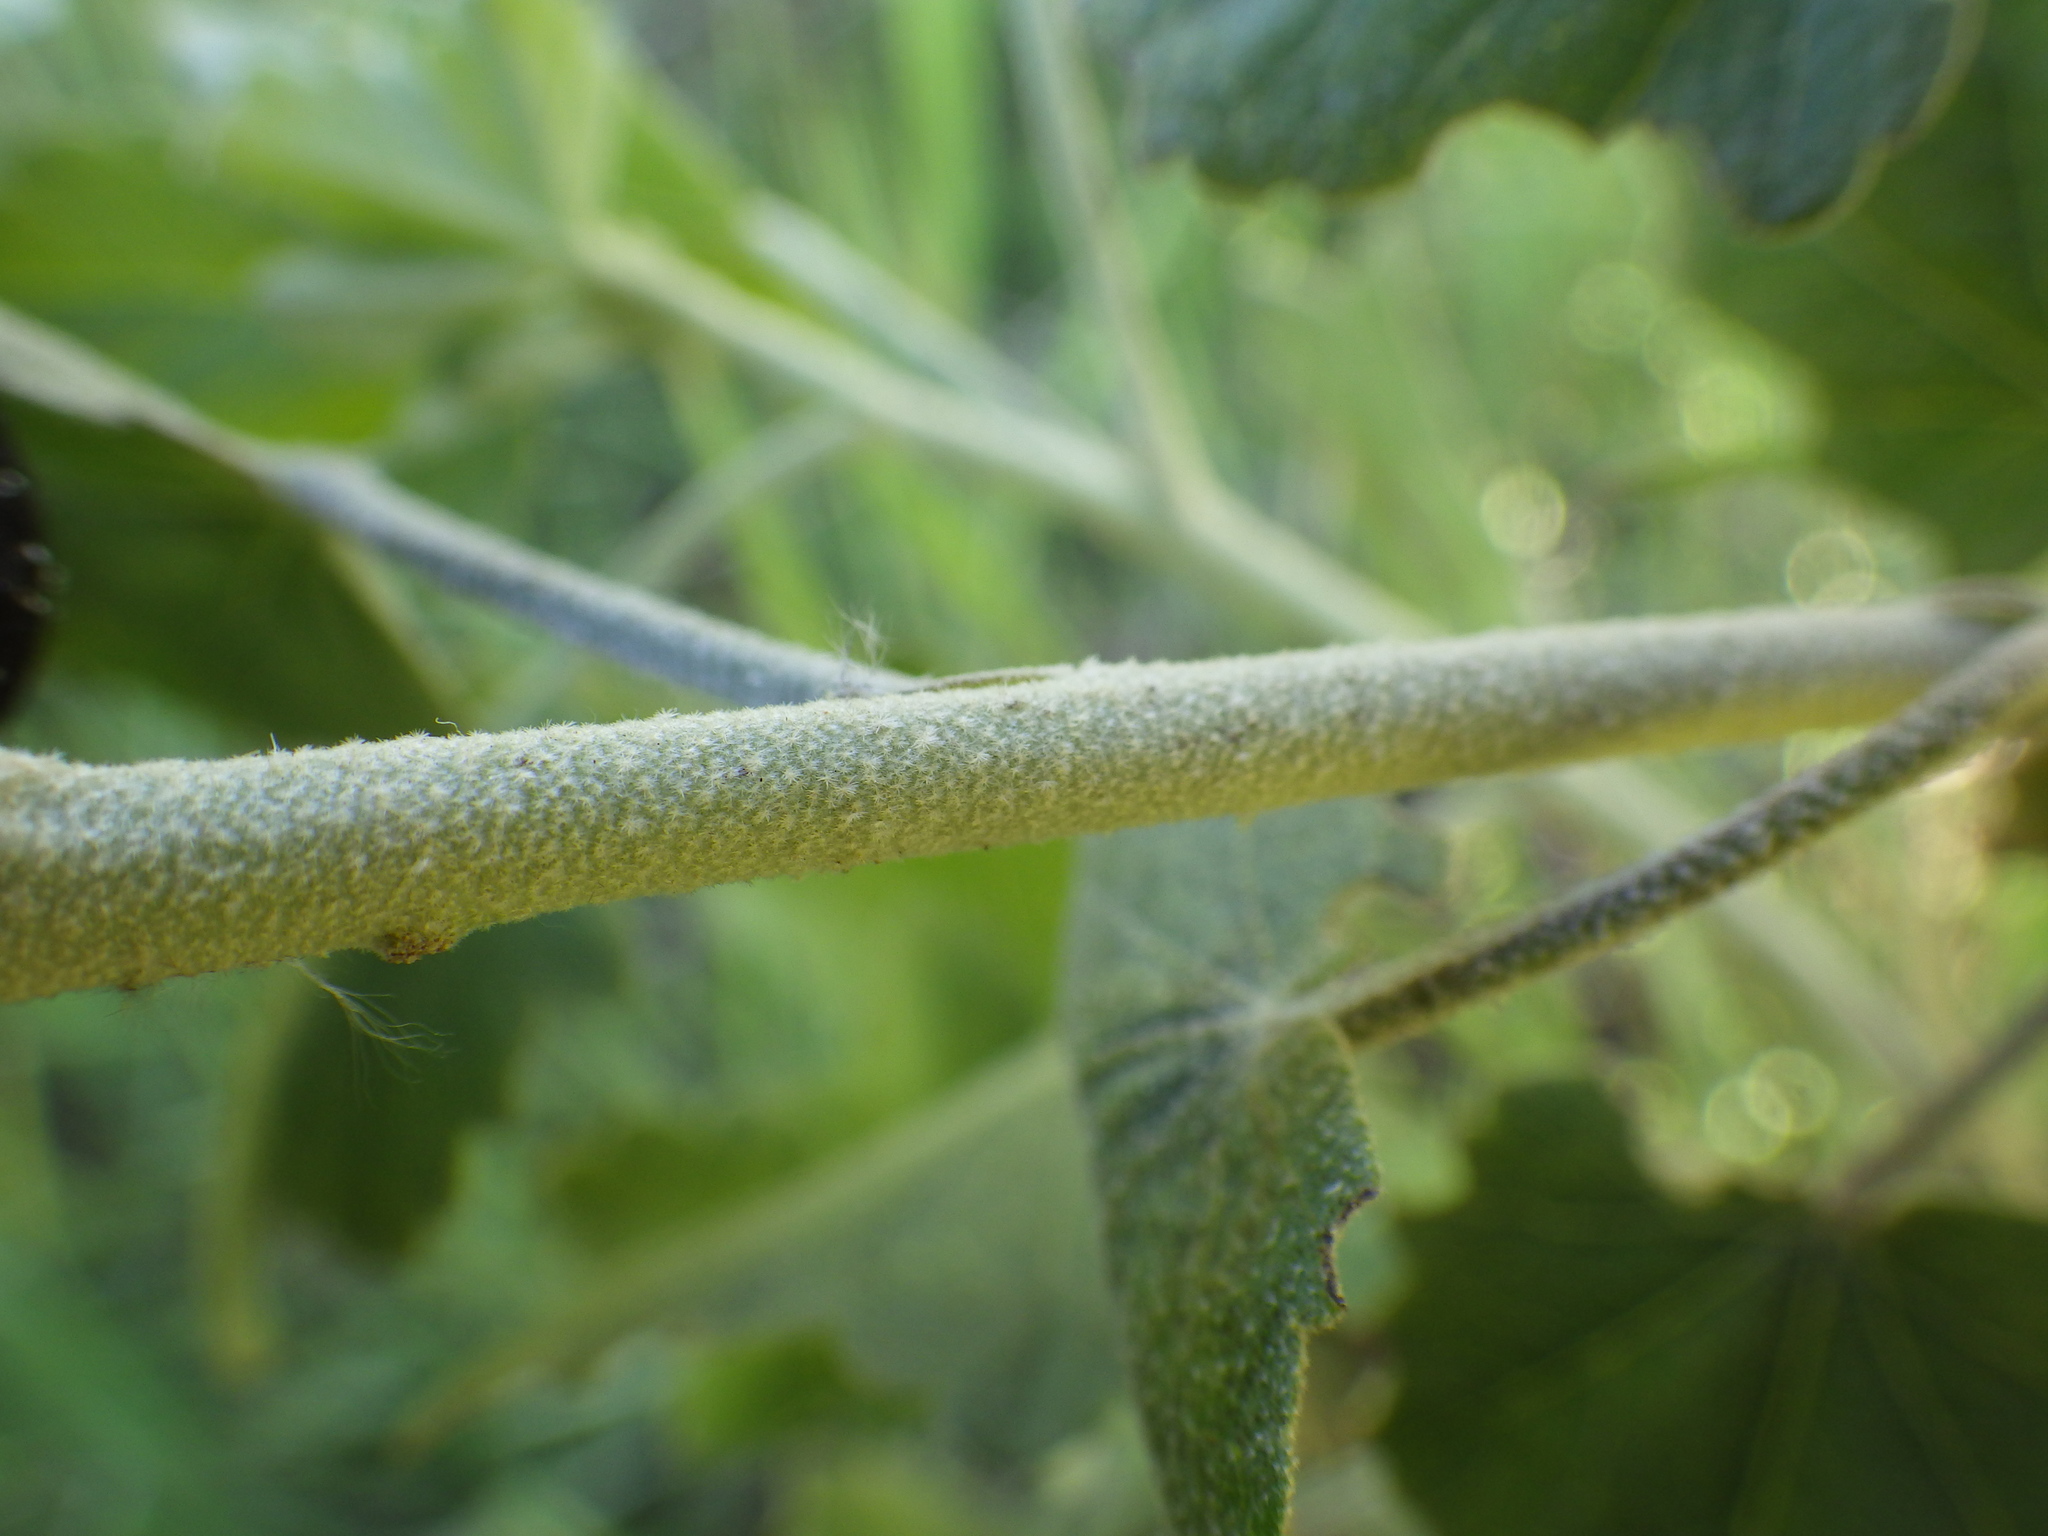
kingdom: Plantae
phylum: Tracheophyta
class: Magnoliopsida
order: Malvales
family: Malvaceae
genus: Malacothamnus
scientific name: Malacothamnus fasciculatus
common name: Sant cruz island bush-mallow
